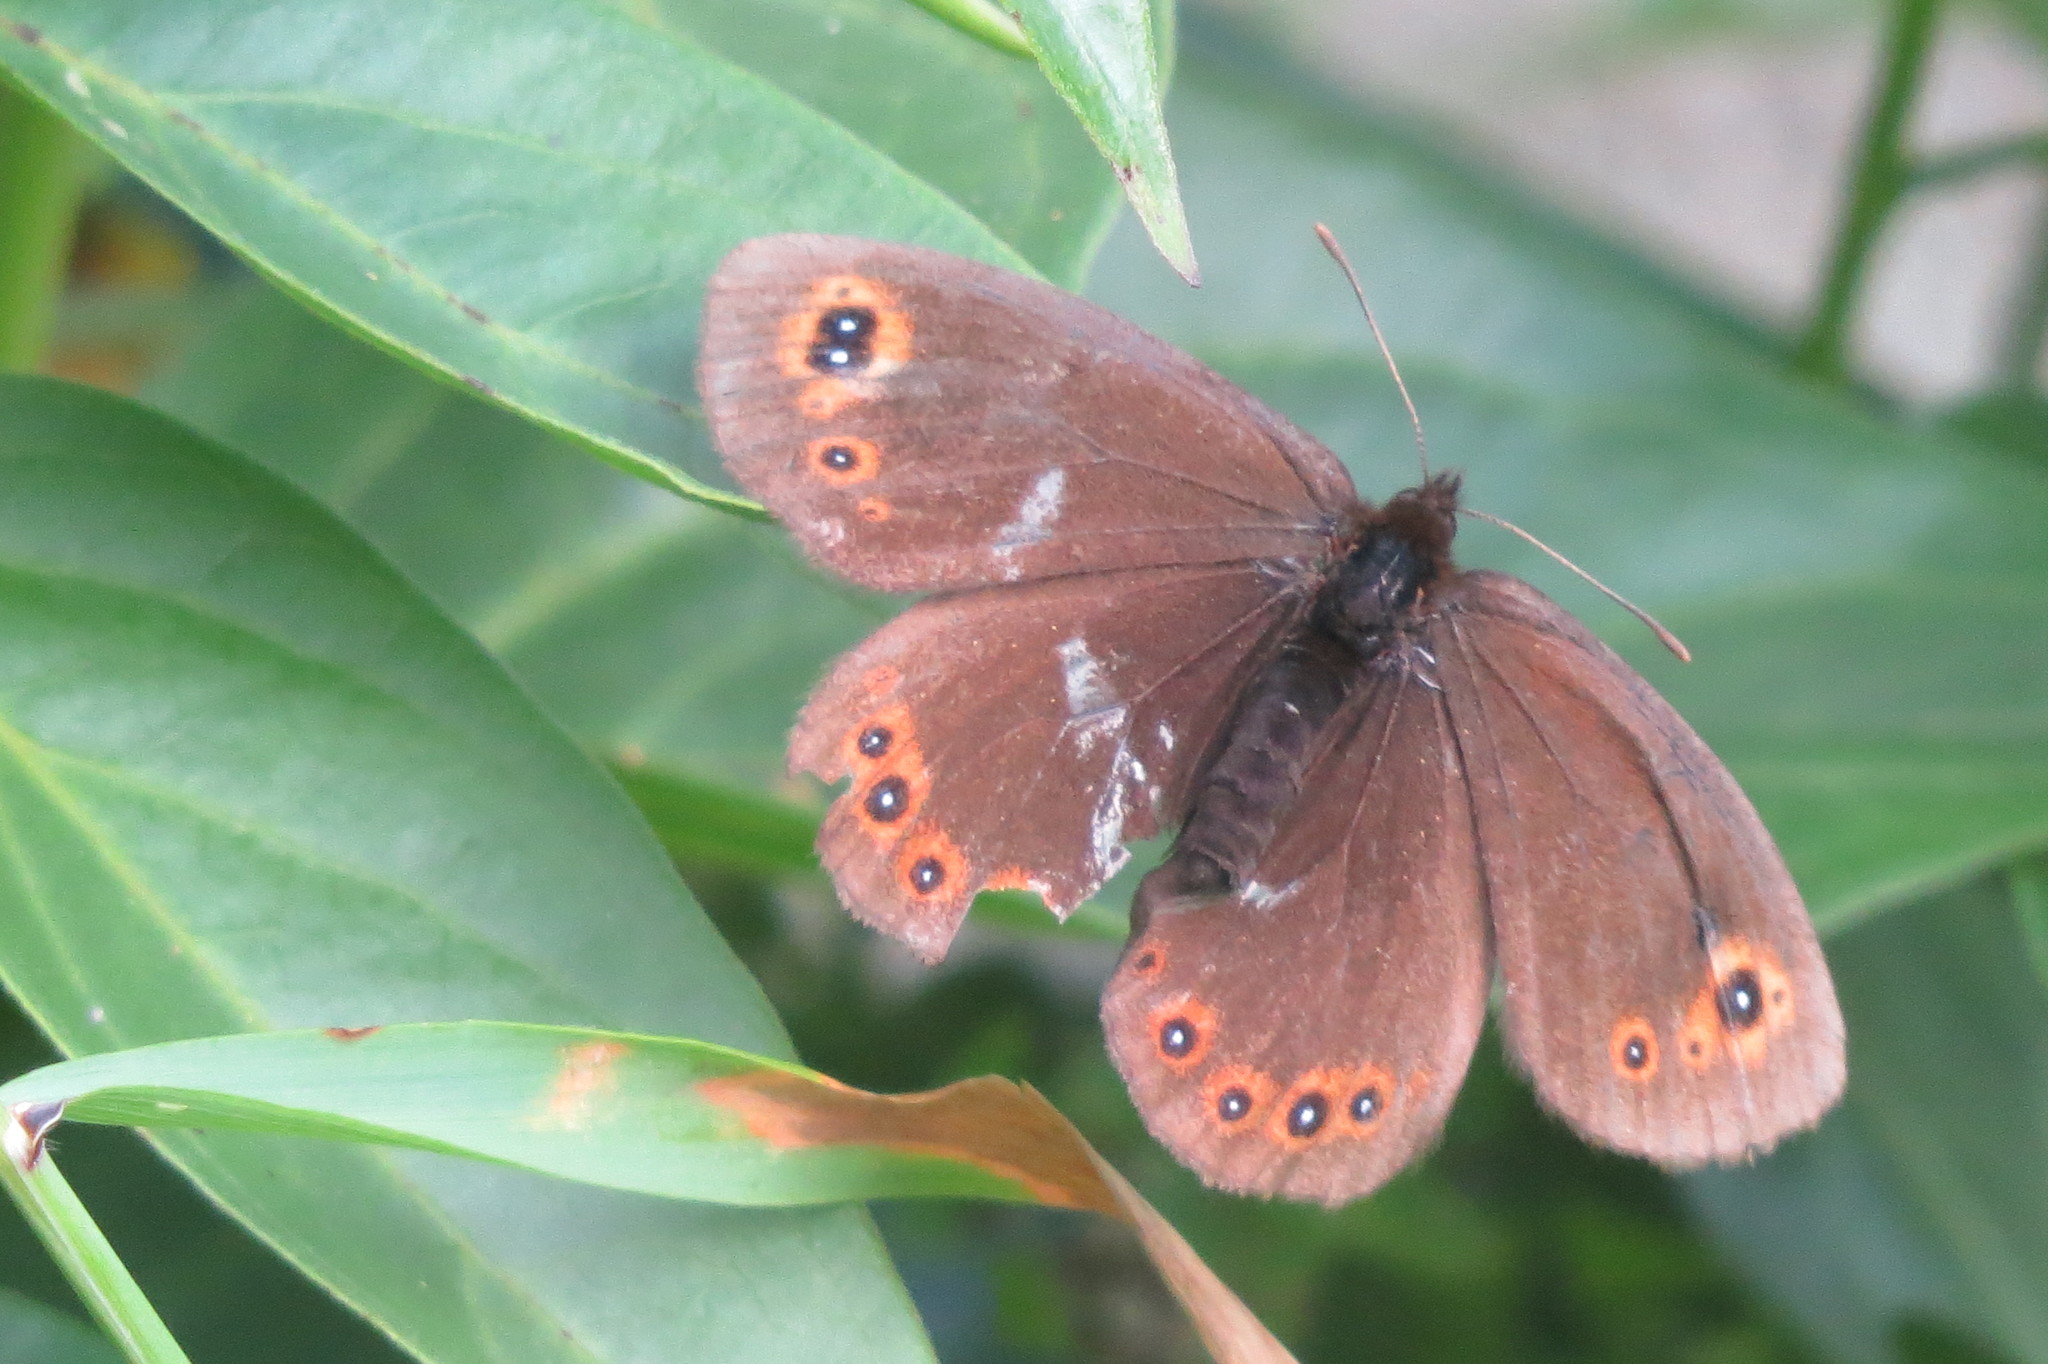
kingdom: Animalia
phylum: Arthropoda
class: Insecta
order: Lepidoptera
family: Nymphalidae
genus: Erebia
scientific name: Erebia medusa
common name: Woodland ringlet
